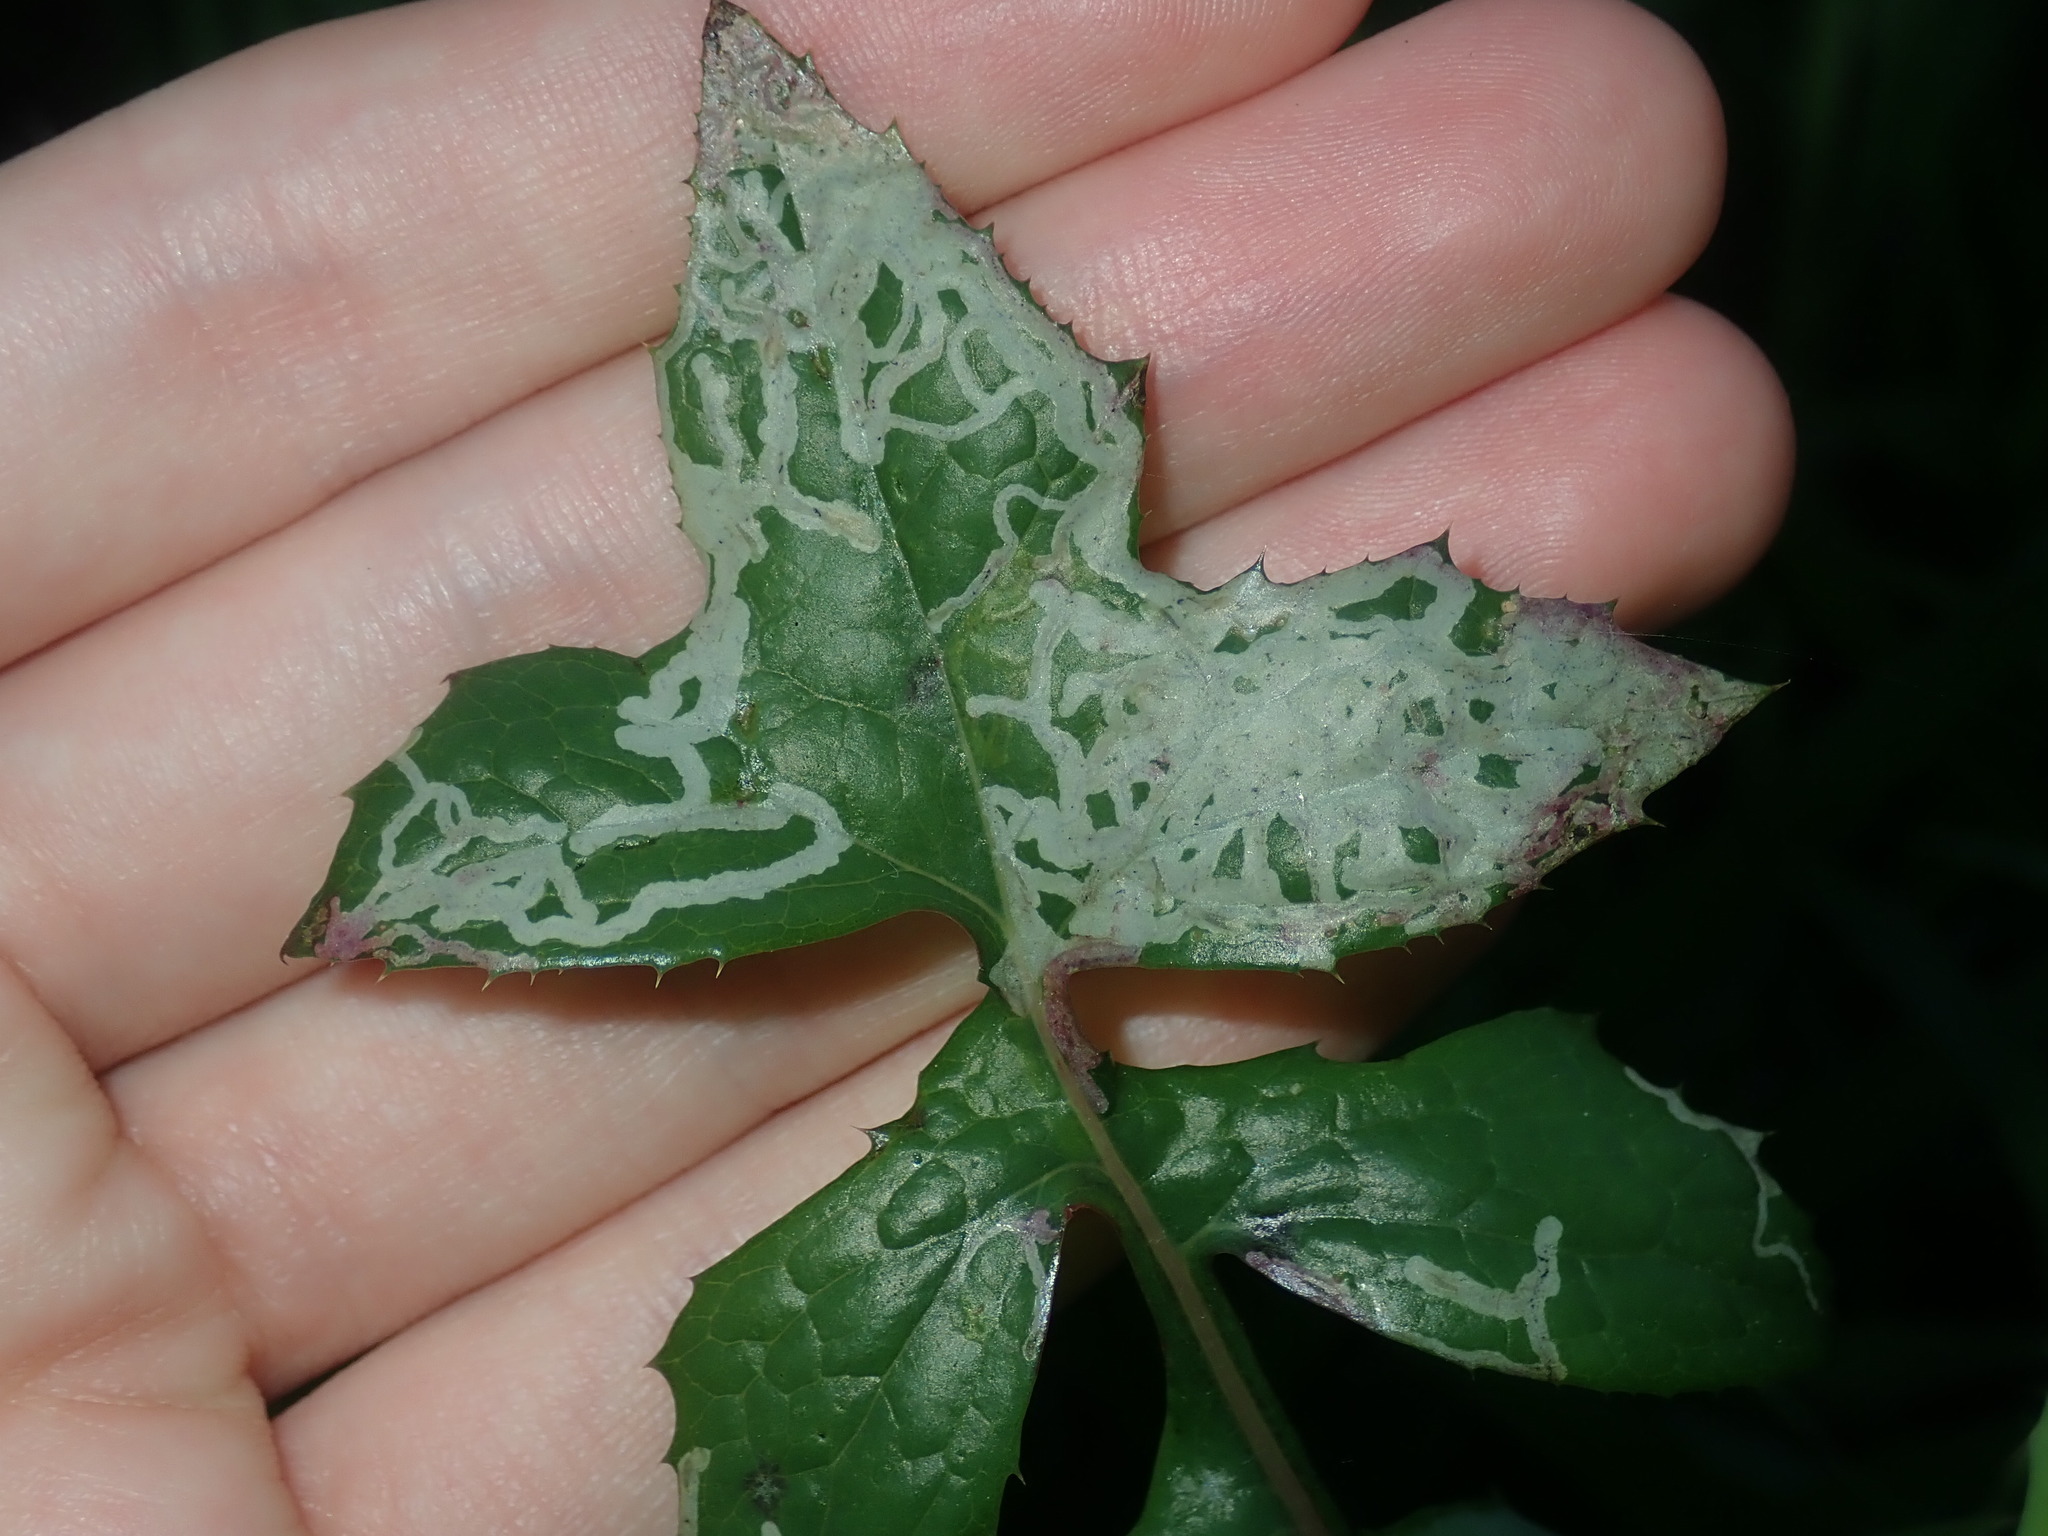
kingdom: Animalia
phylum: Arthropoda
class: Insecta
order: Diptera
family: Agromyzidae
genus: Phytomyza
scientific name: Phytomyza syngenesiae
